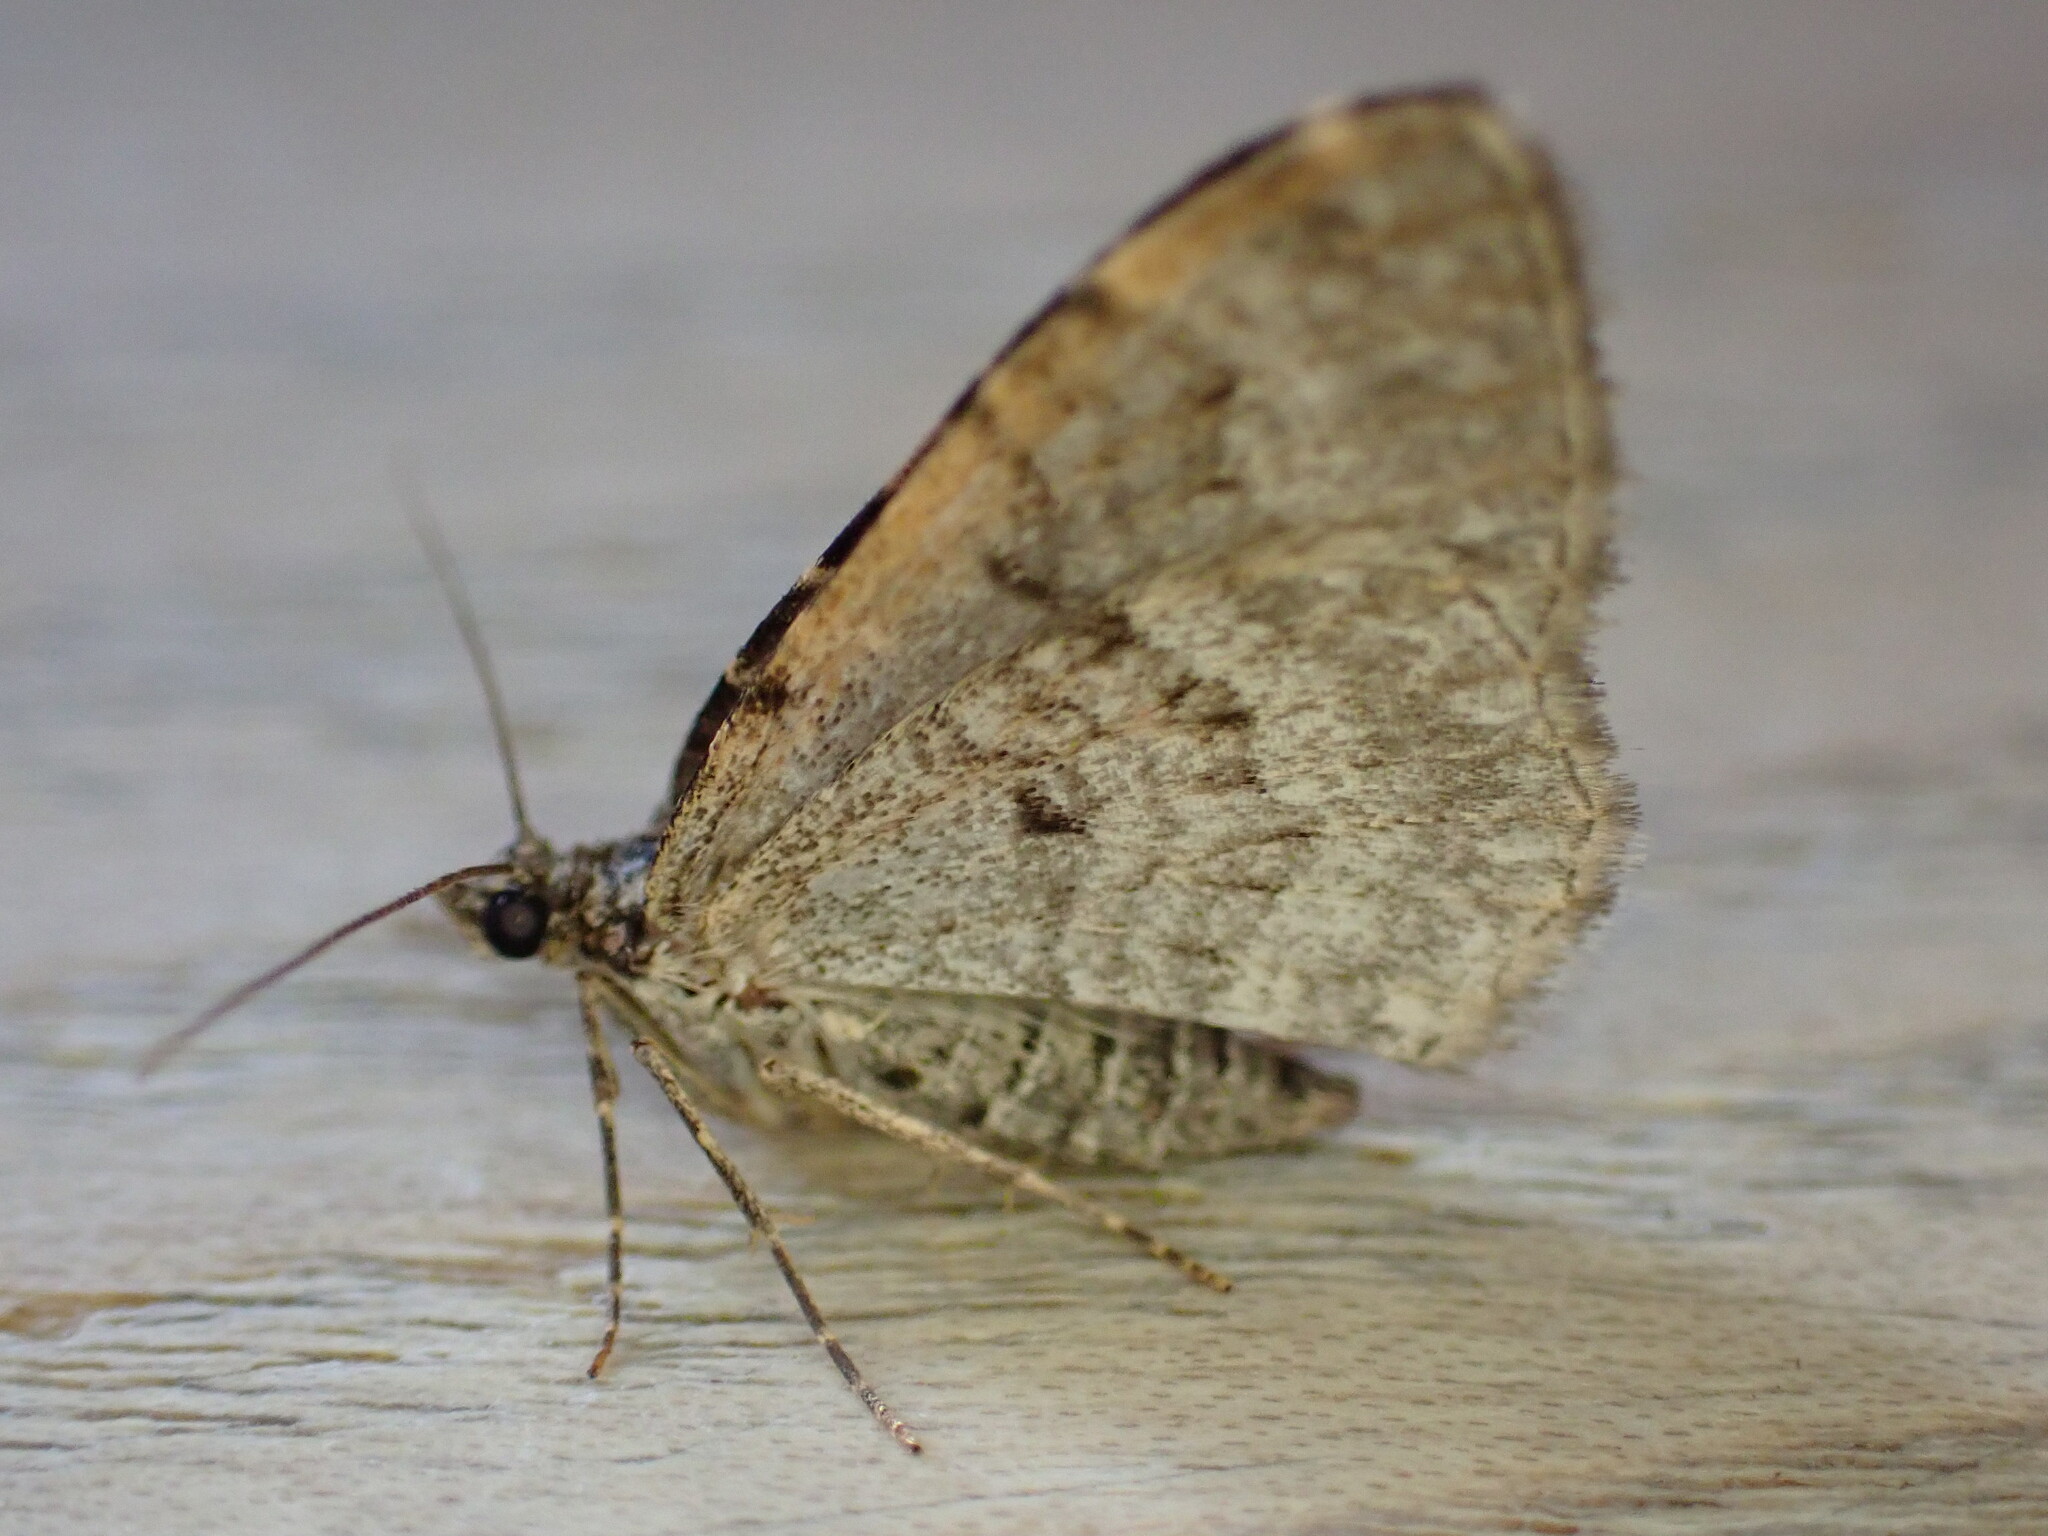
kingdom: Animalia
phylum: Arthropoda
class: Insecta
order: Lepidoptera
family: Geometridae
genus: Xanthorhoe
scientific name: Xanthorhoe designata
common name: Flame carpet
